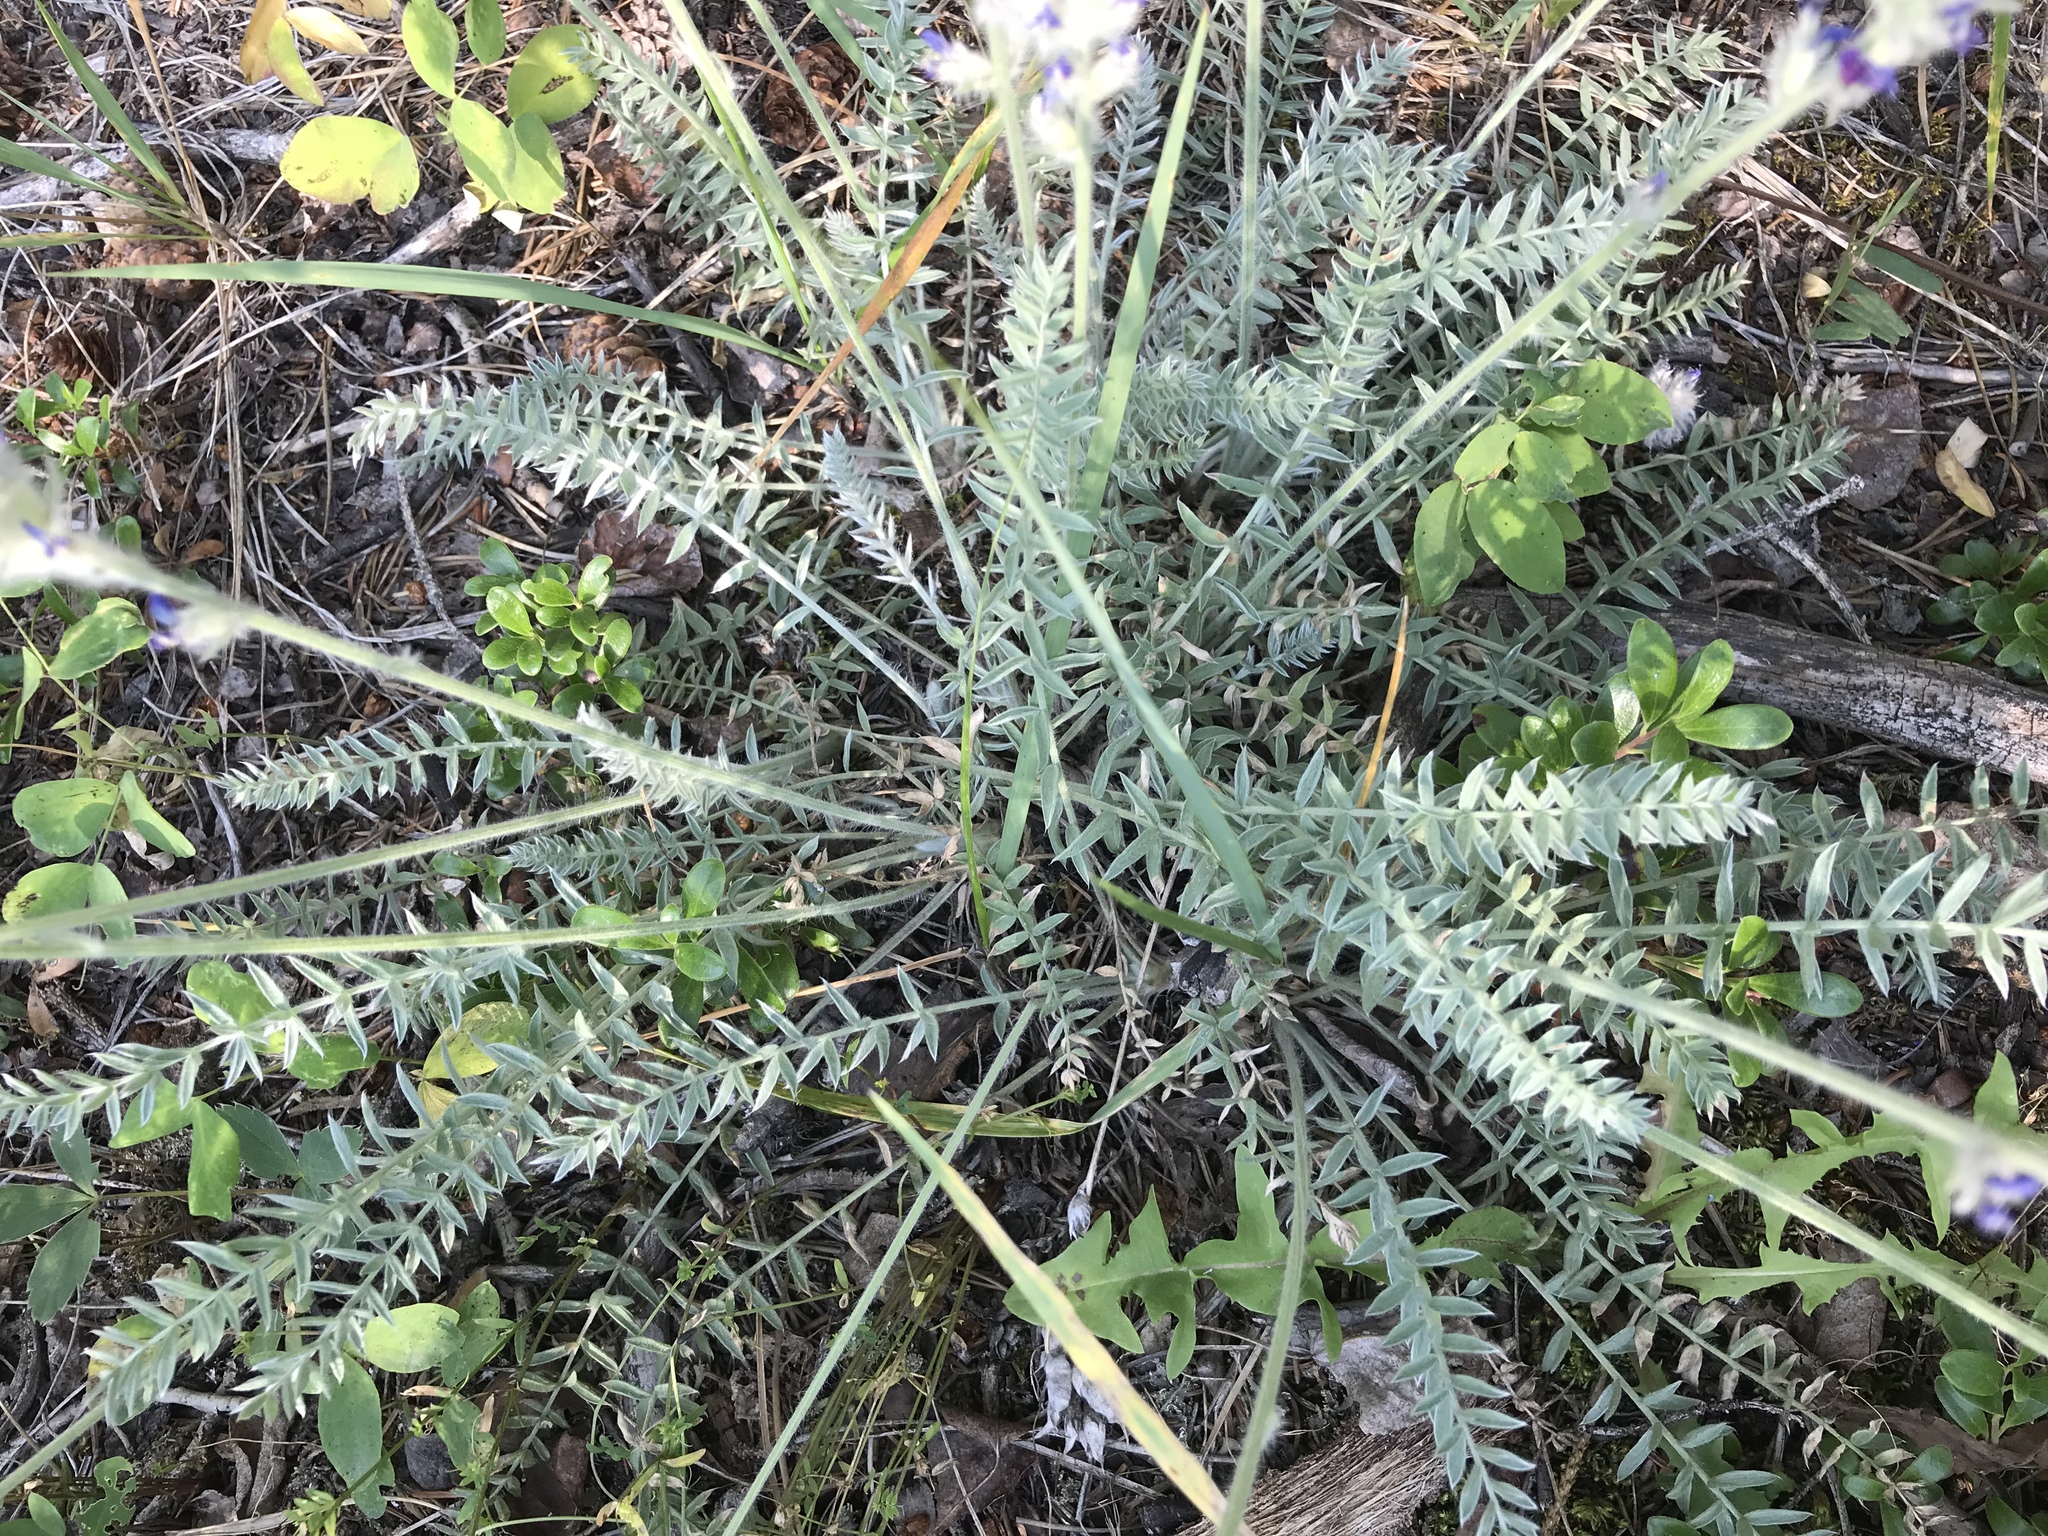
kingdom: Plantae
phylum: Tracheophyta
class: Magnoliopsida
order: Fabales
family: Fabaceae
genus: Oxytropis
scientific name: Oxytropis splendens
